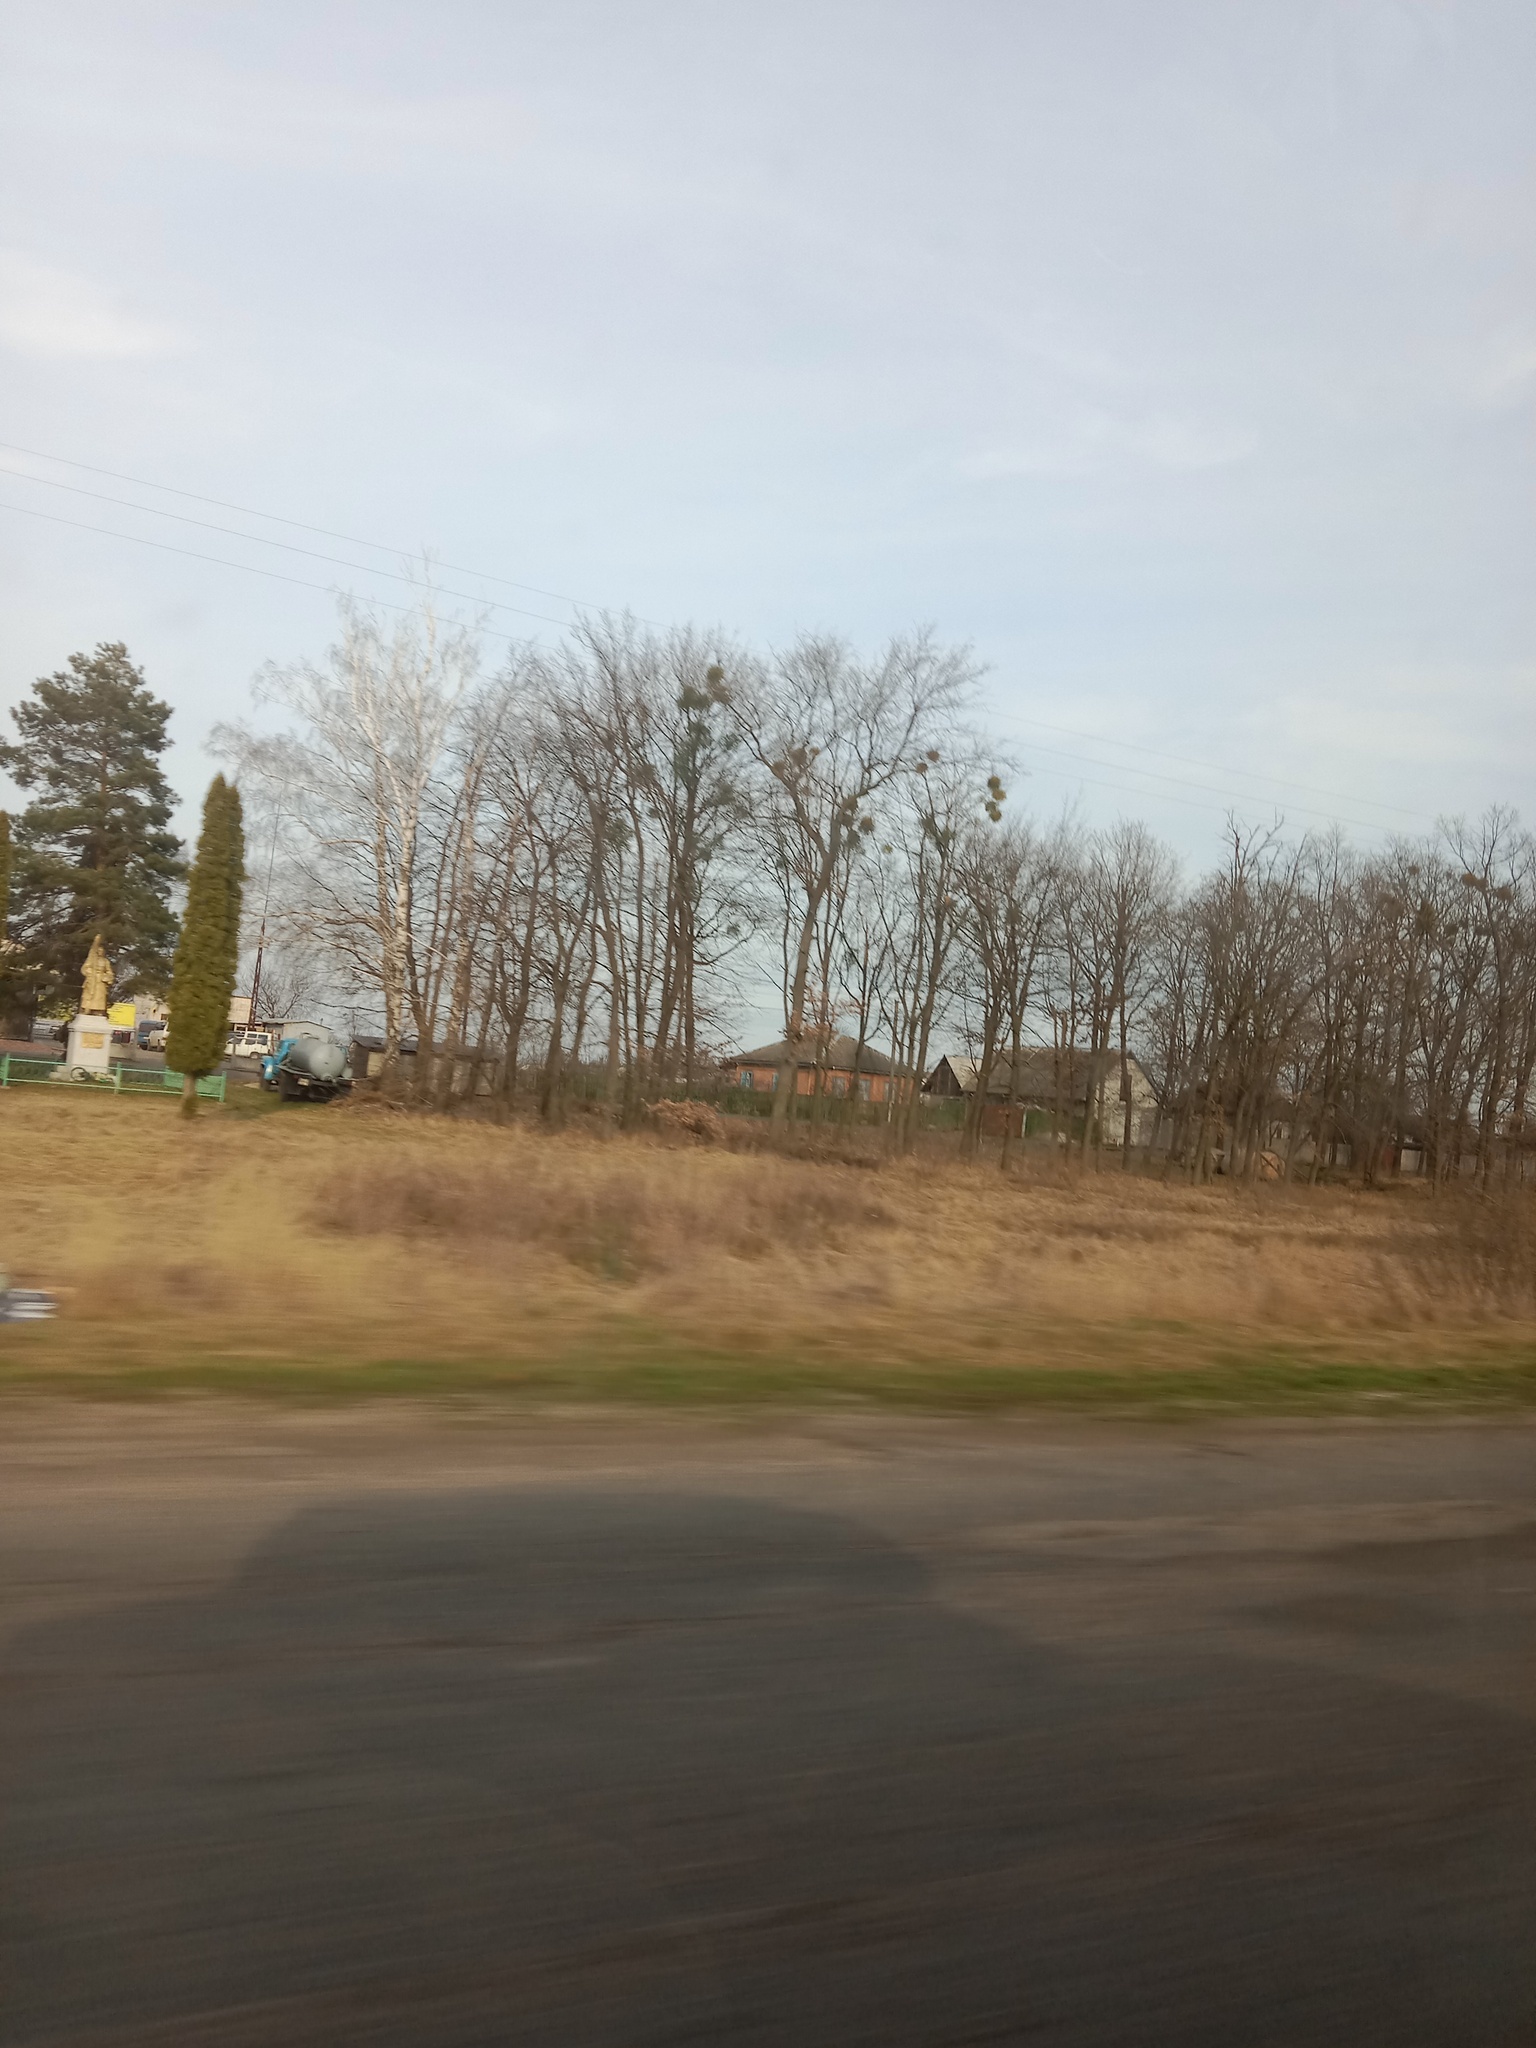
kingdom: Plantae
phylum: Tracheophyta
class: Magnoliopsida
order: Santalales
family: Viscaceae
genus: Viscum
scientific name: Viscum album
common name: Mistletoe
